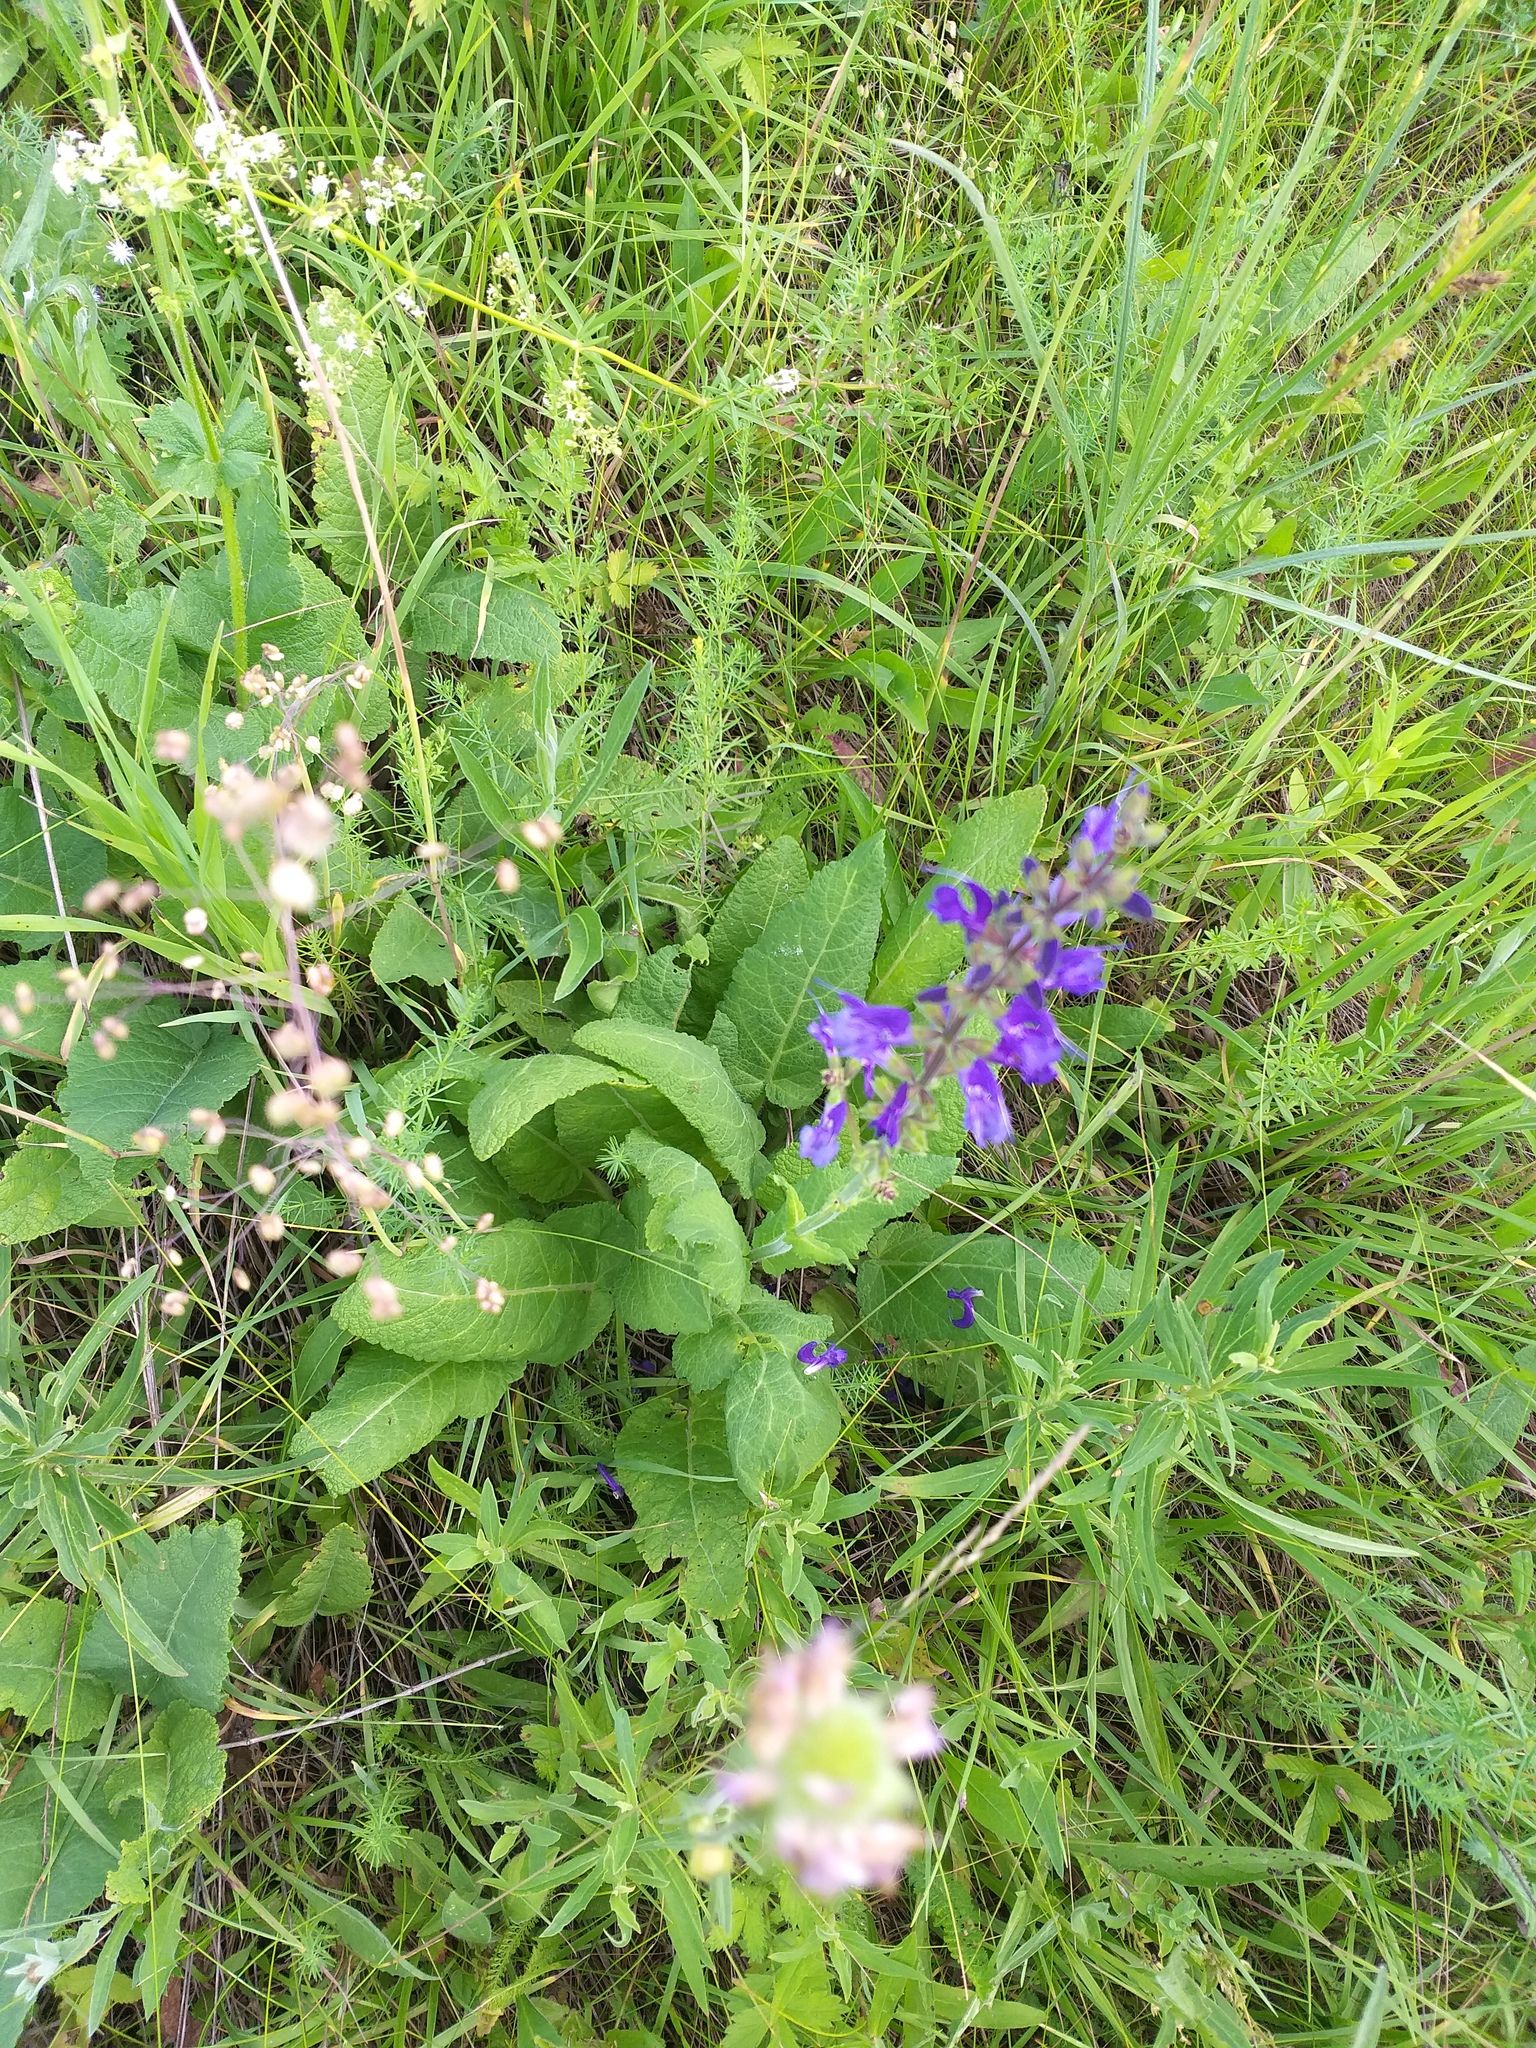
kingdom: Plantae
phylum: Tracheophyta
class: Magnoliopsida
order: Lamiales
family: Lamiaceae
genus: Salvia
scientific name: Salvia pratensis
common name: Meadow sage
